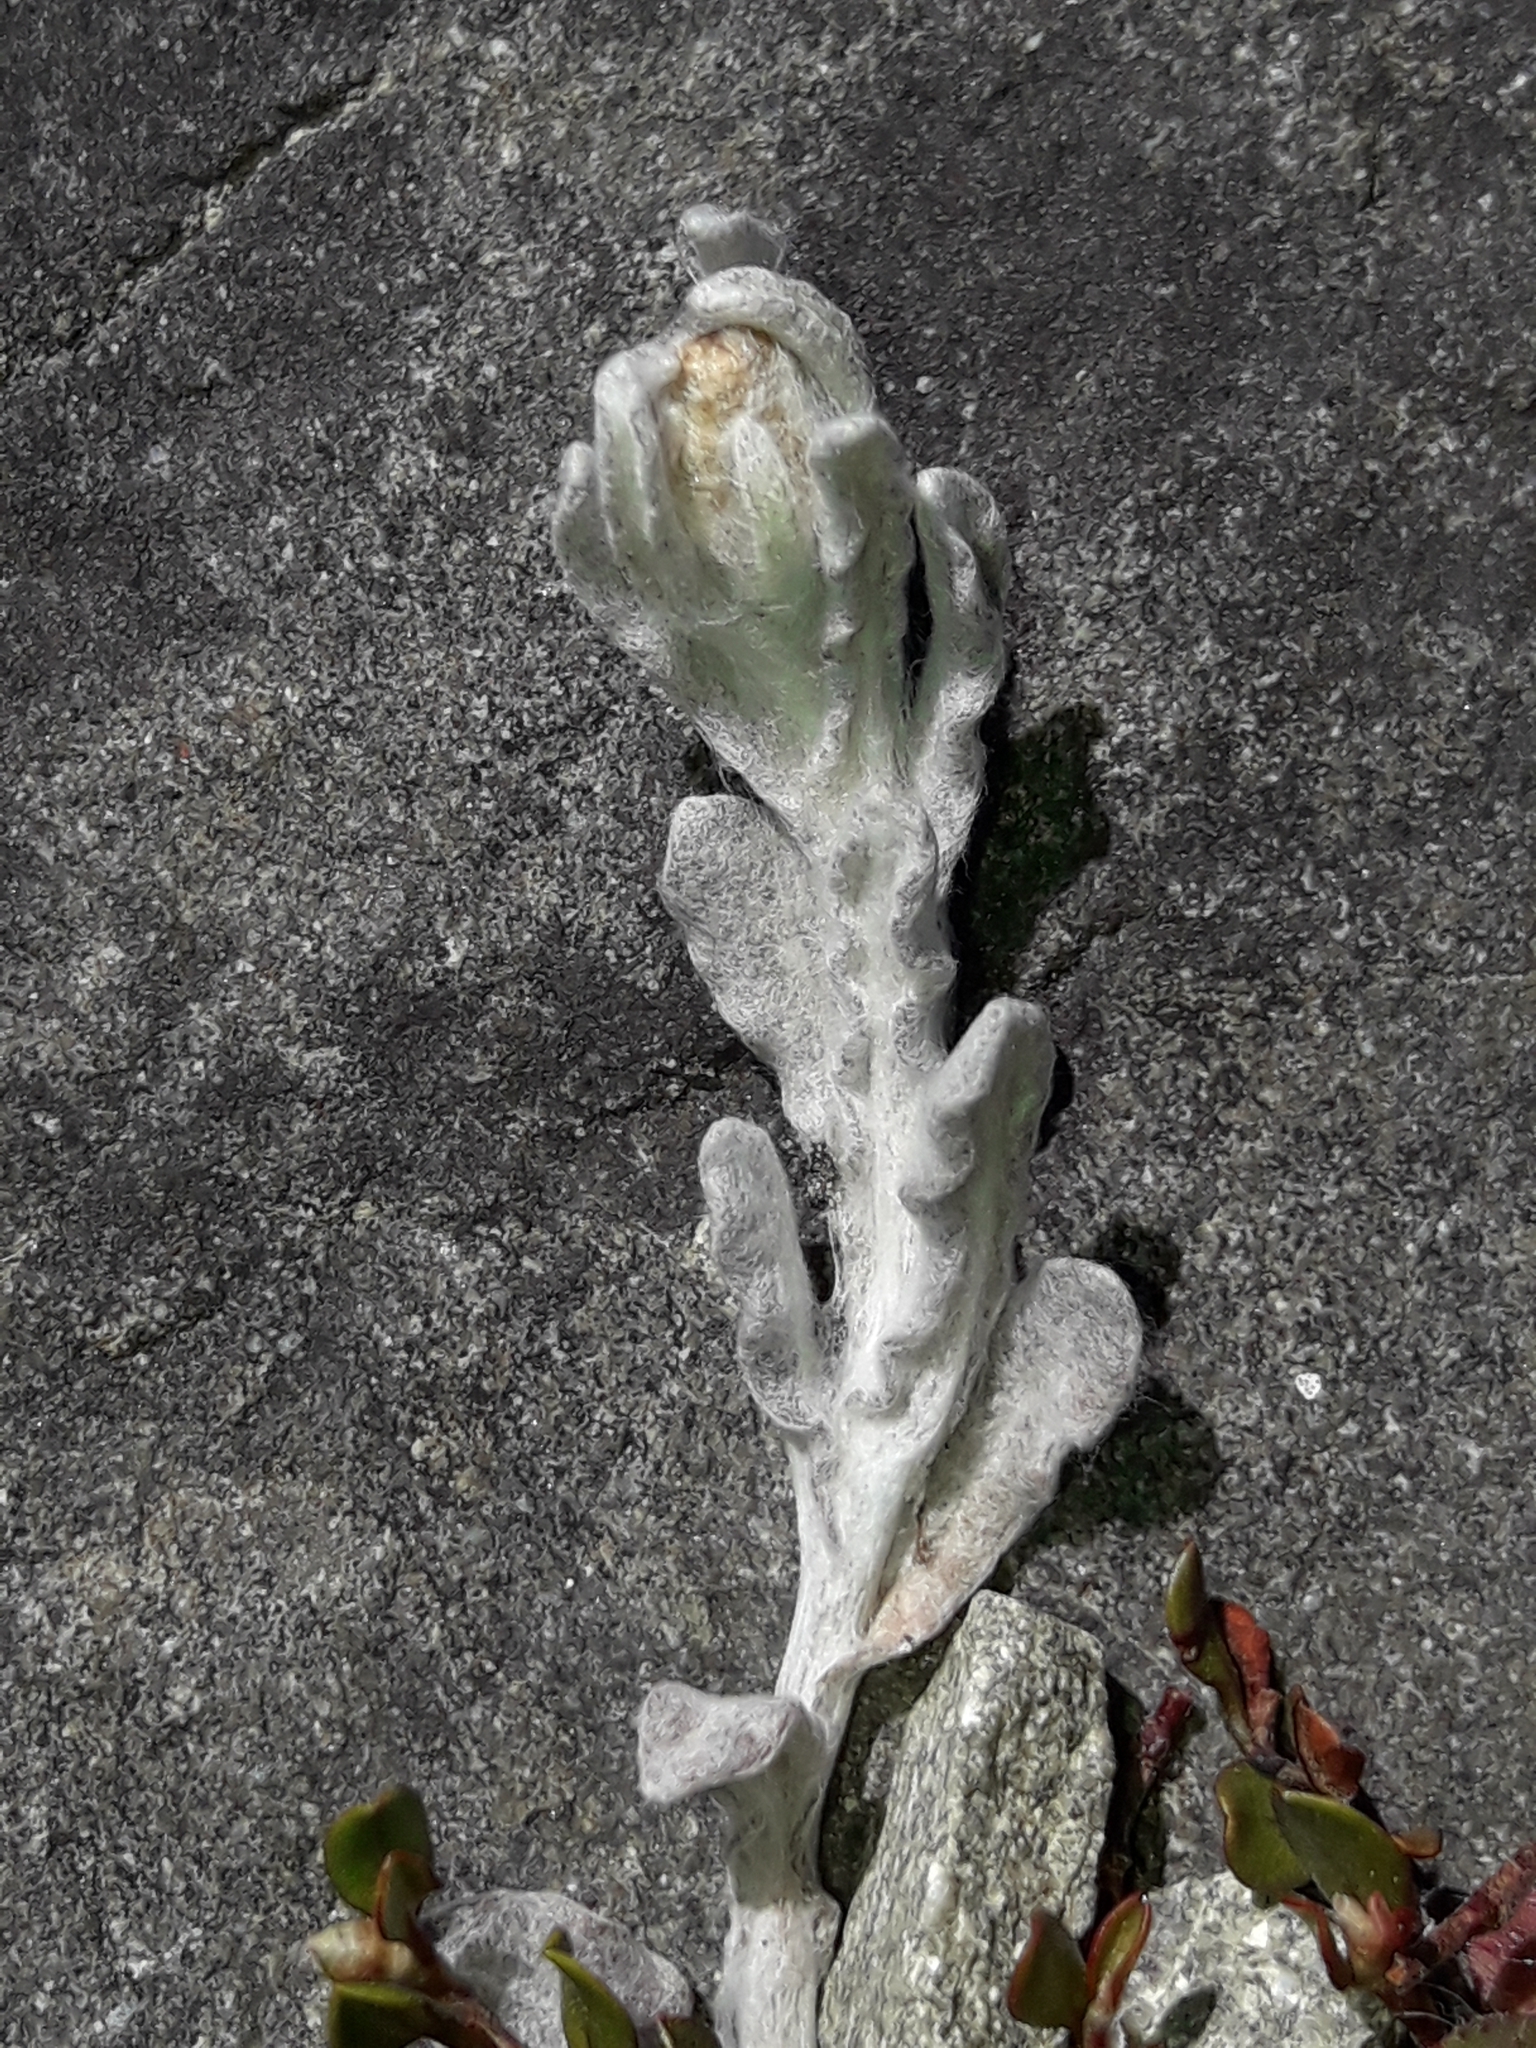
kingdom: Plantae
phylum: Tracheophyta
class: Magnoliopsida
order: Asterales
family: Asteraceae
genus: Helichrysum
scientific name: Helichrysum luteoalbum
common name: Daisy
